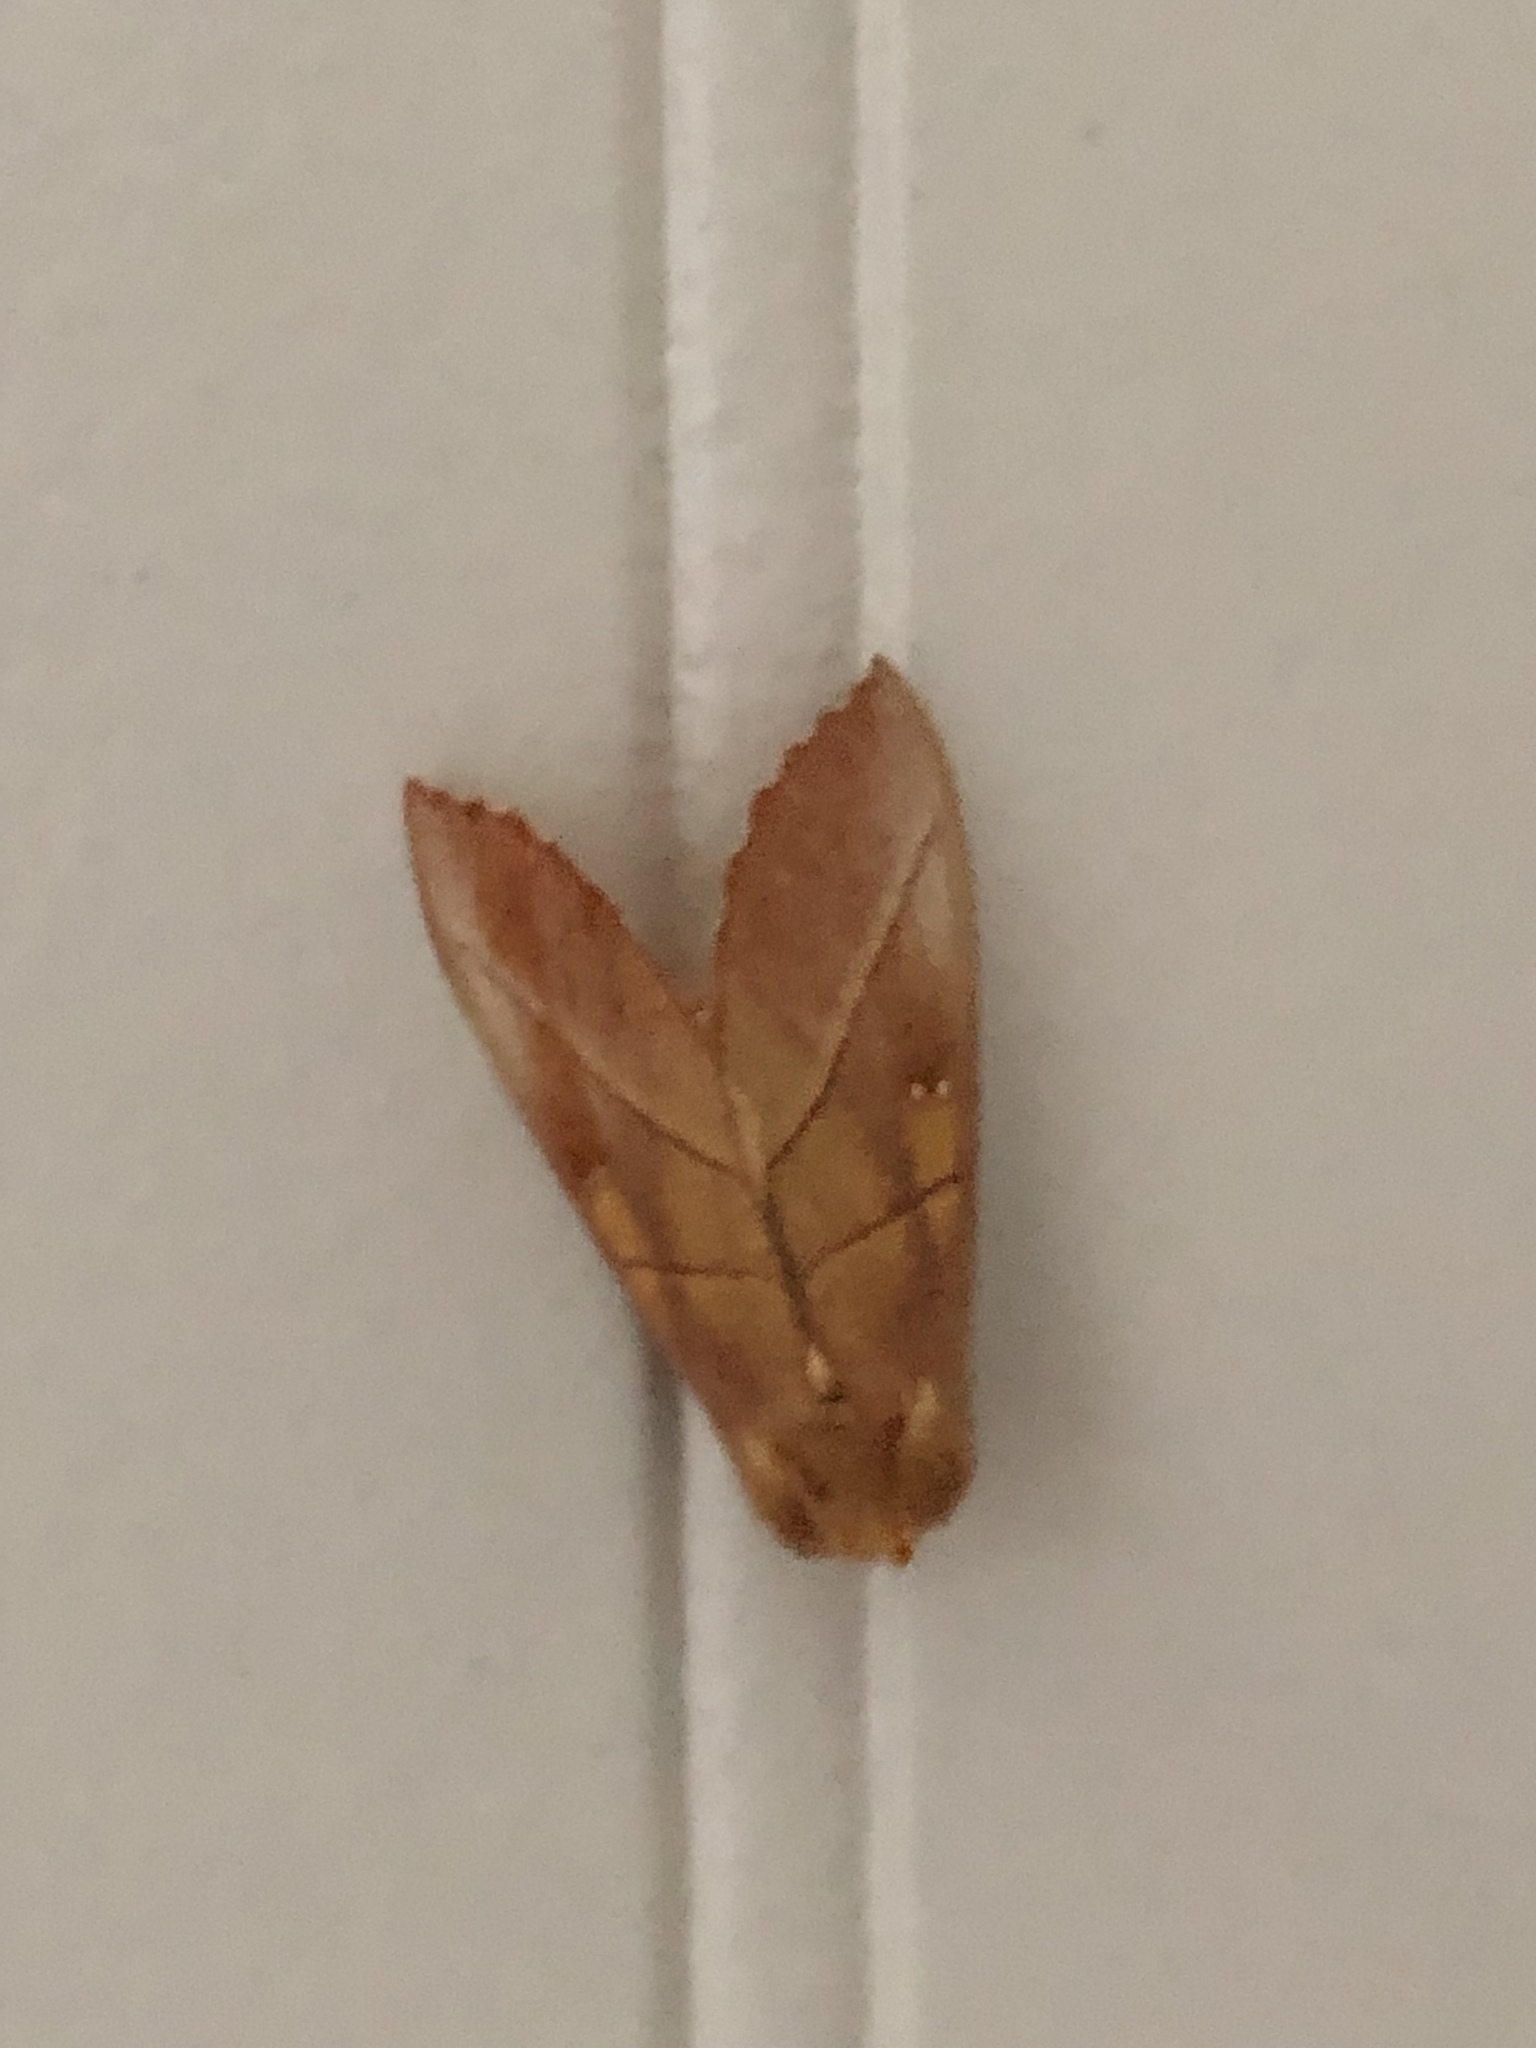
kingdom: Animalia
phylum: Arthropoda
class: Insecta
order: Lepidoptera
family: Notodontidae
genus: Nadata
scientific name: Nadata gibbosa
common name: White-dotted prominent
